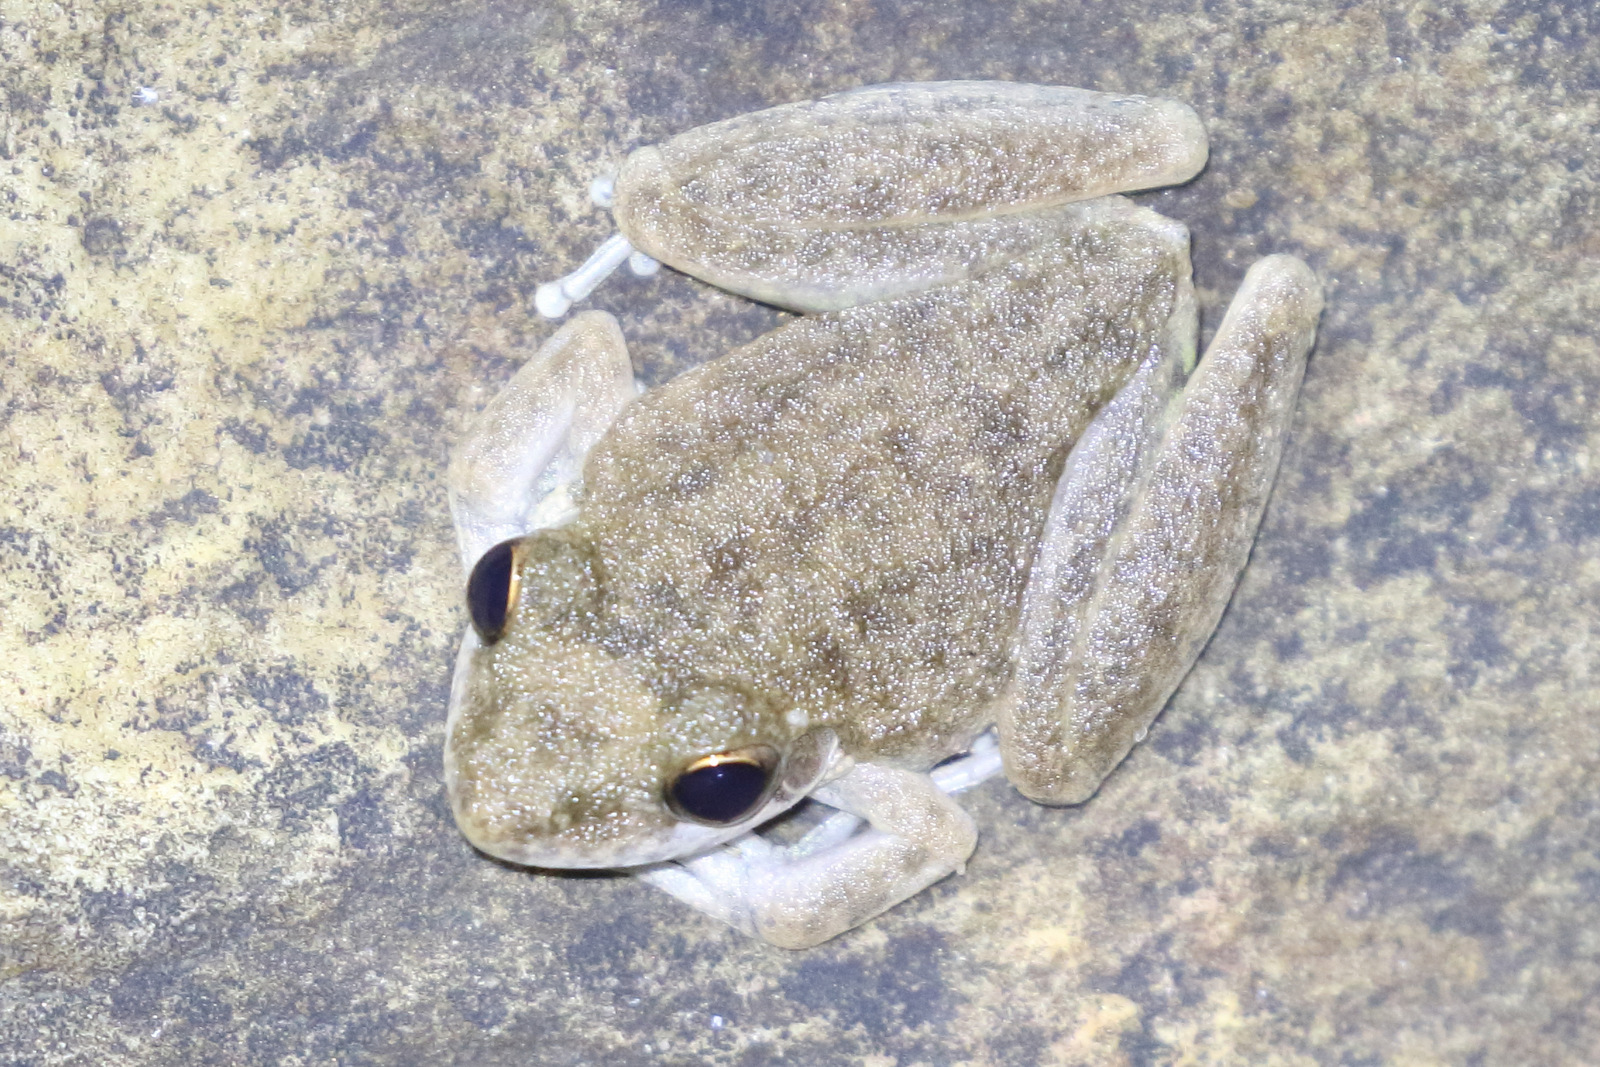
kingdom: Animalia
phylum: Chordata
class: Amphibia
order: Anura
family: Pelodryadidae
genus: Litoria
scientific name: Litoria
